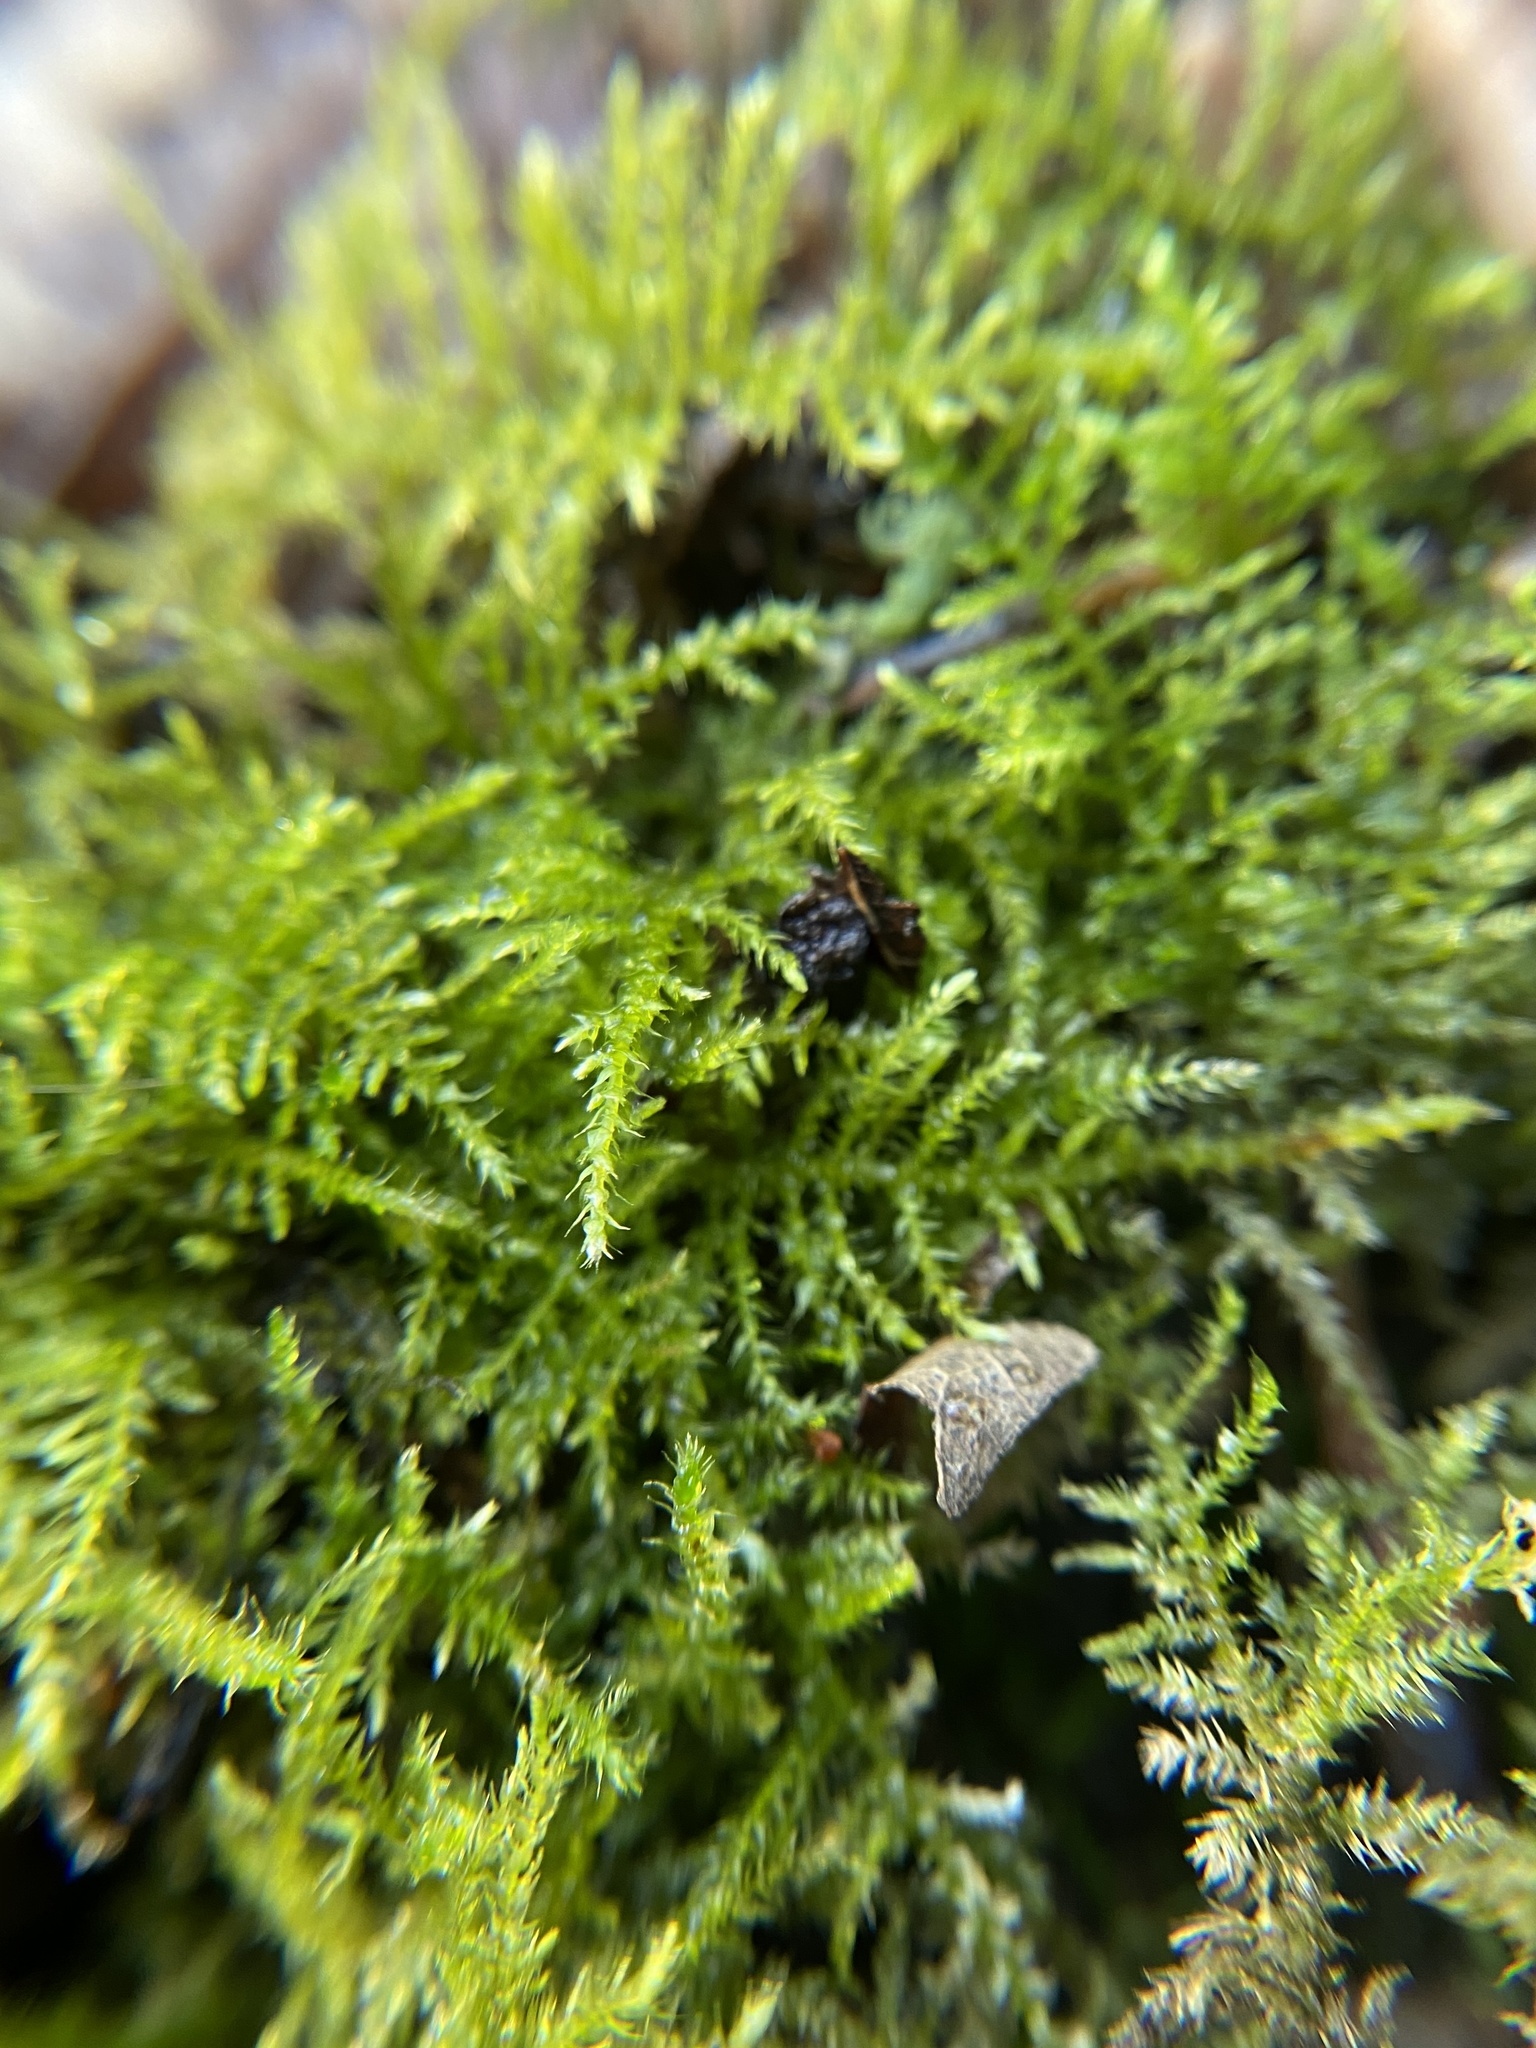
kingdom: Plantae
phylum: Bryophyta
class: Bryopsida
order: Hypnales
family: Brachytheciaceae
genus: Kindbergia
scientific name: Kindbergia praelonga
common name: Slender beaked moss
